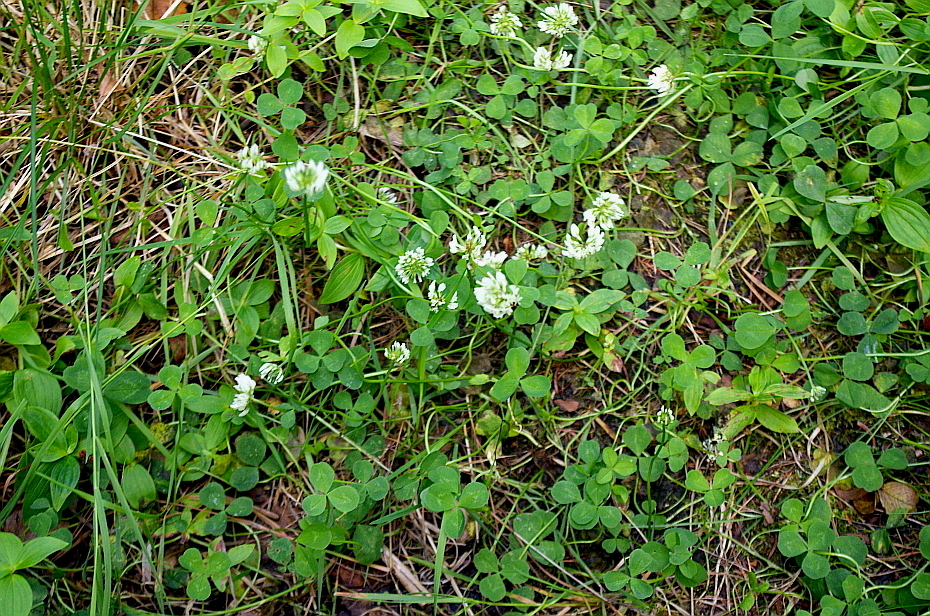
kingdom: Plantae
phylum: Tracheophyta
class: Magnoliopsida
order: Fabales
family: Fabaceae
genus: Trifolium
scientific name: Trifolium repens
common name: White clover
